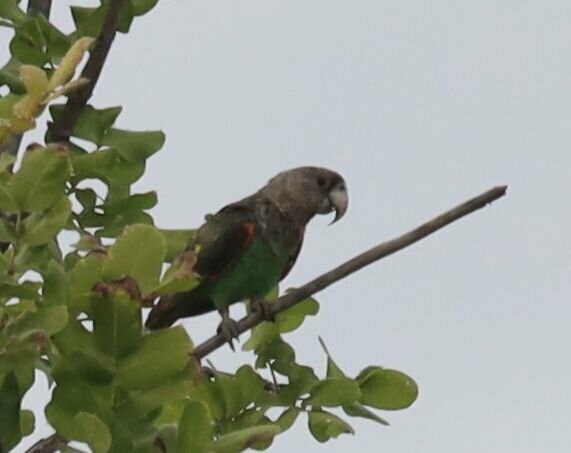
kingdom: Animalia
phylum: Chordata
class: Aves
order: Psittaciformes
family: Psittacidae
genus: Poicephalus
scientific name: Poicephalus robustus
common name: Cape parrot
